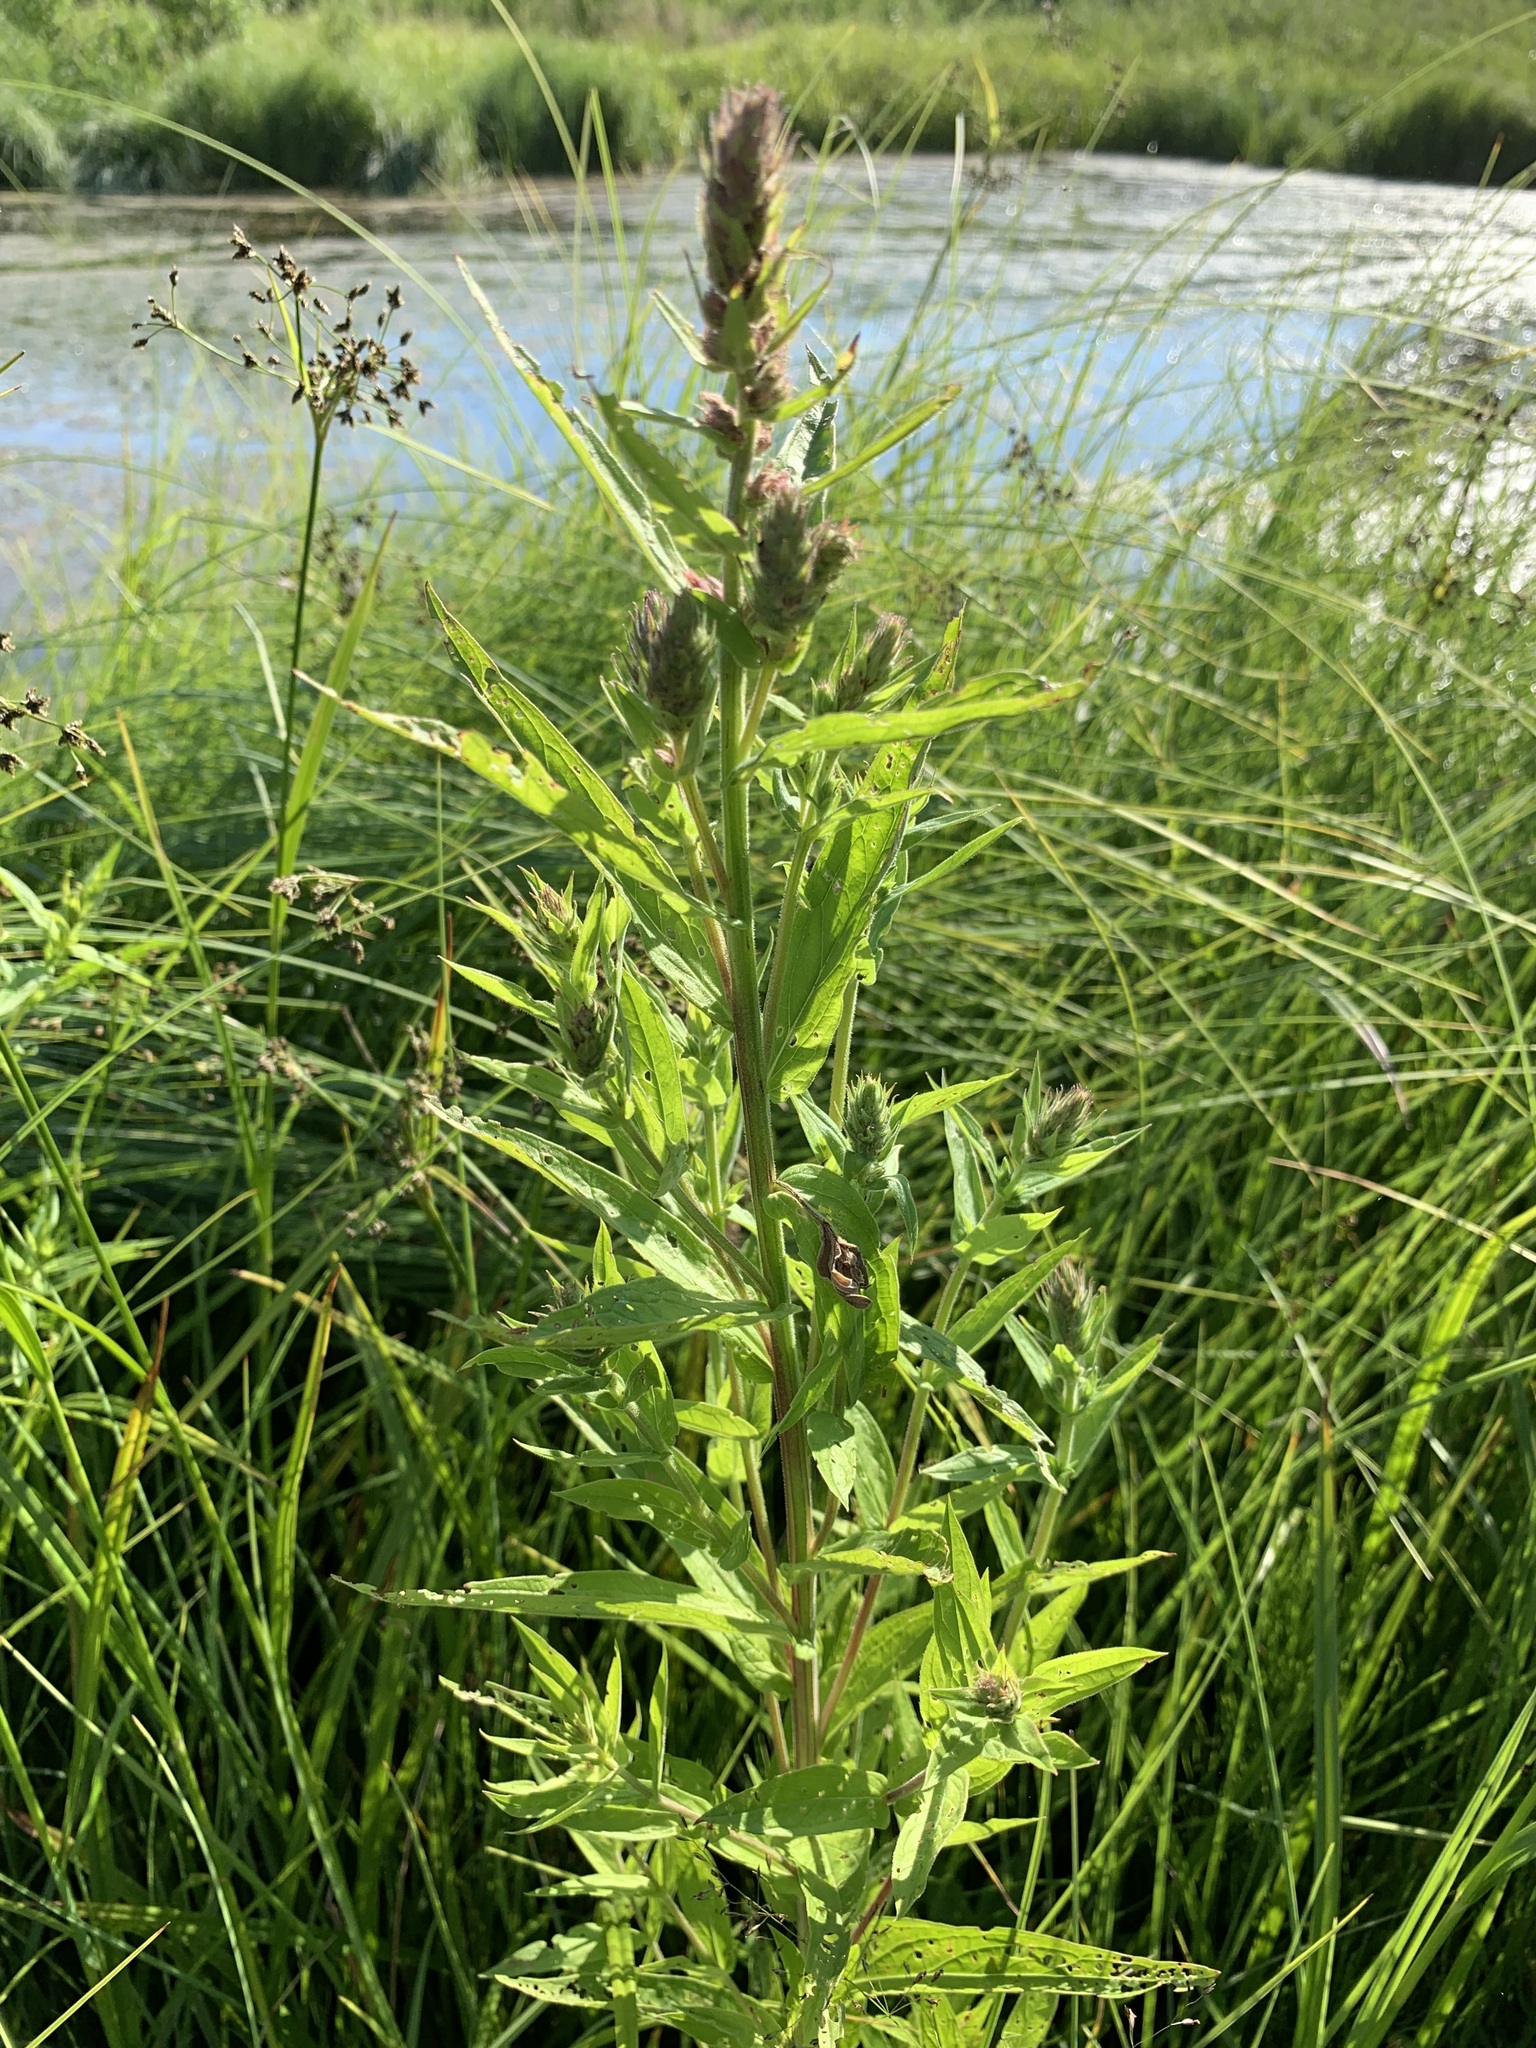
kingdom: Plantae
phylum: Tracheophyta
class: Magnoliopsida
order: Myrtales
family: Lythraceae
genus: Lythrum
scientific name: Lythrum salicaria
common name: Purple loosestrife
